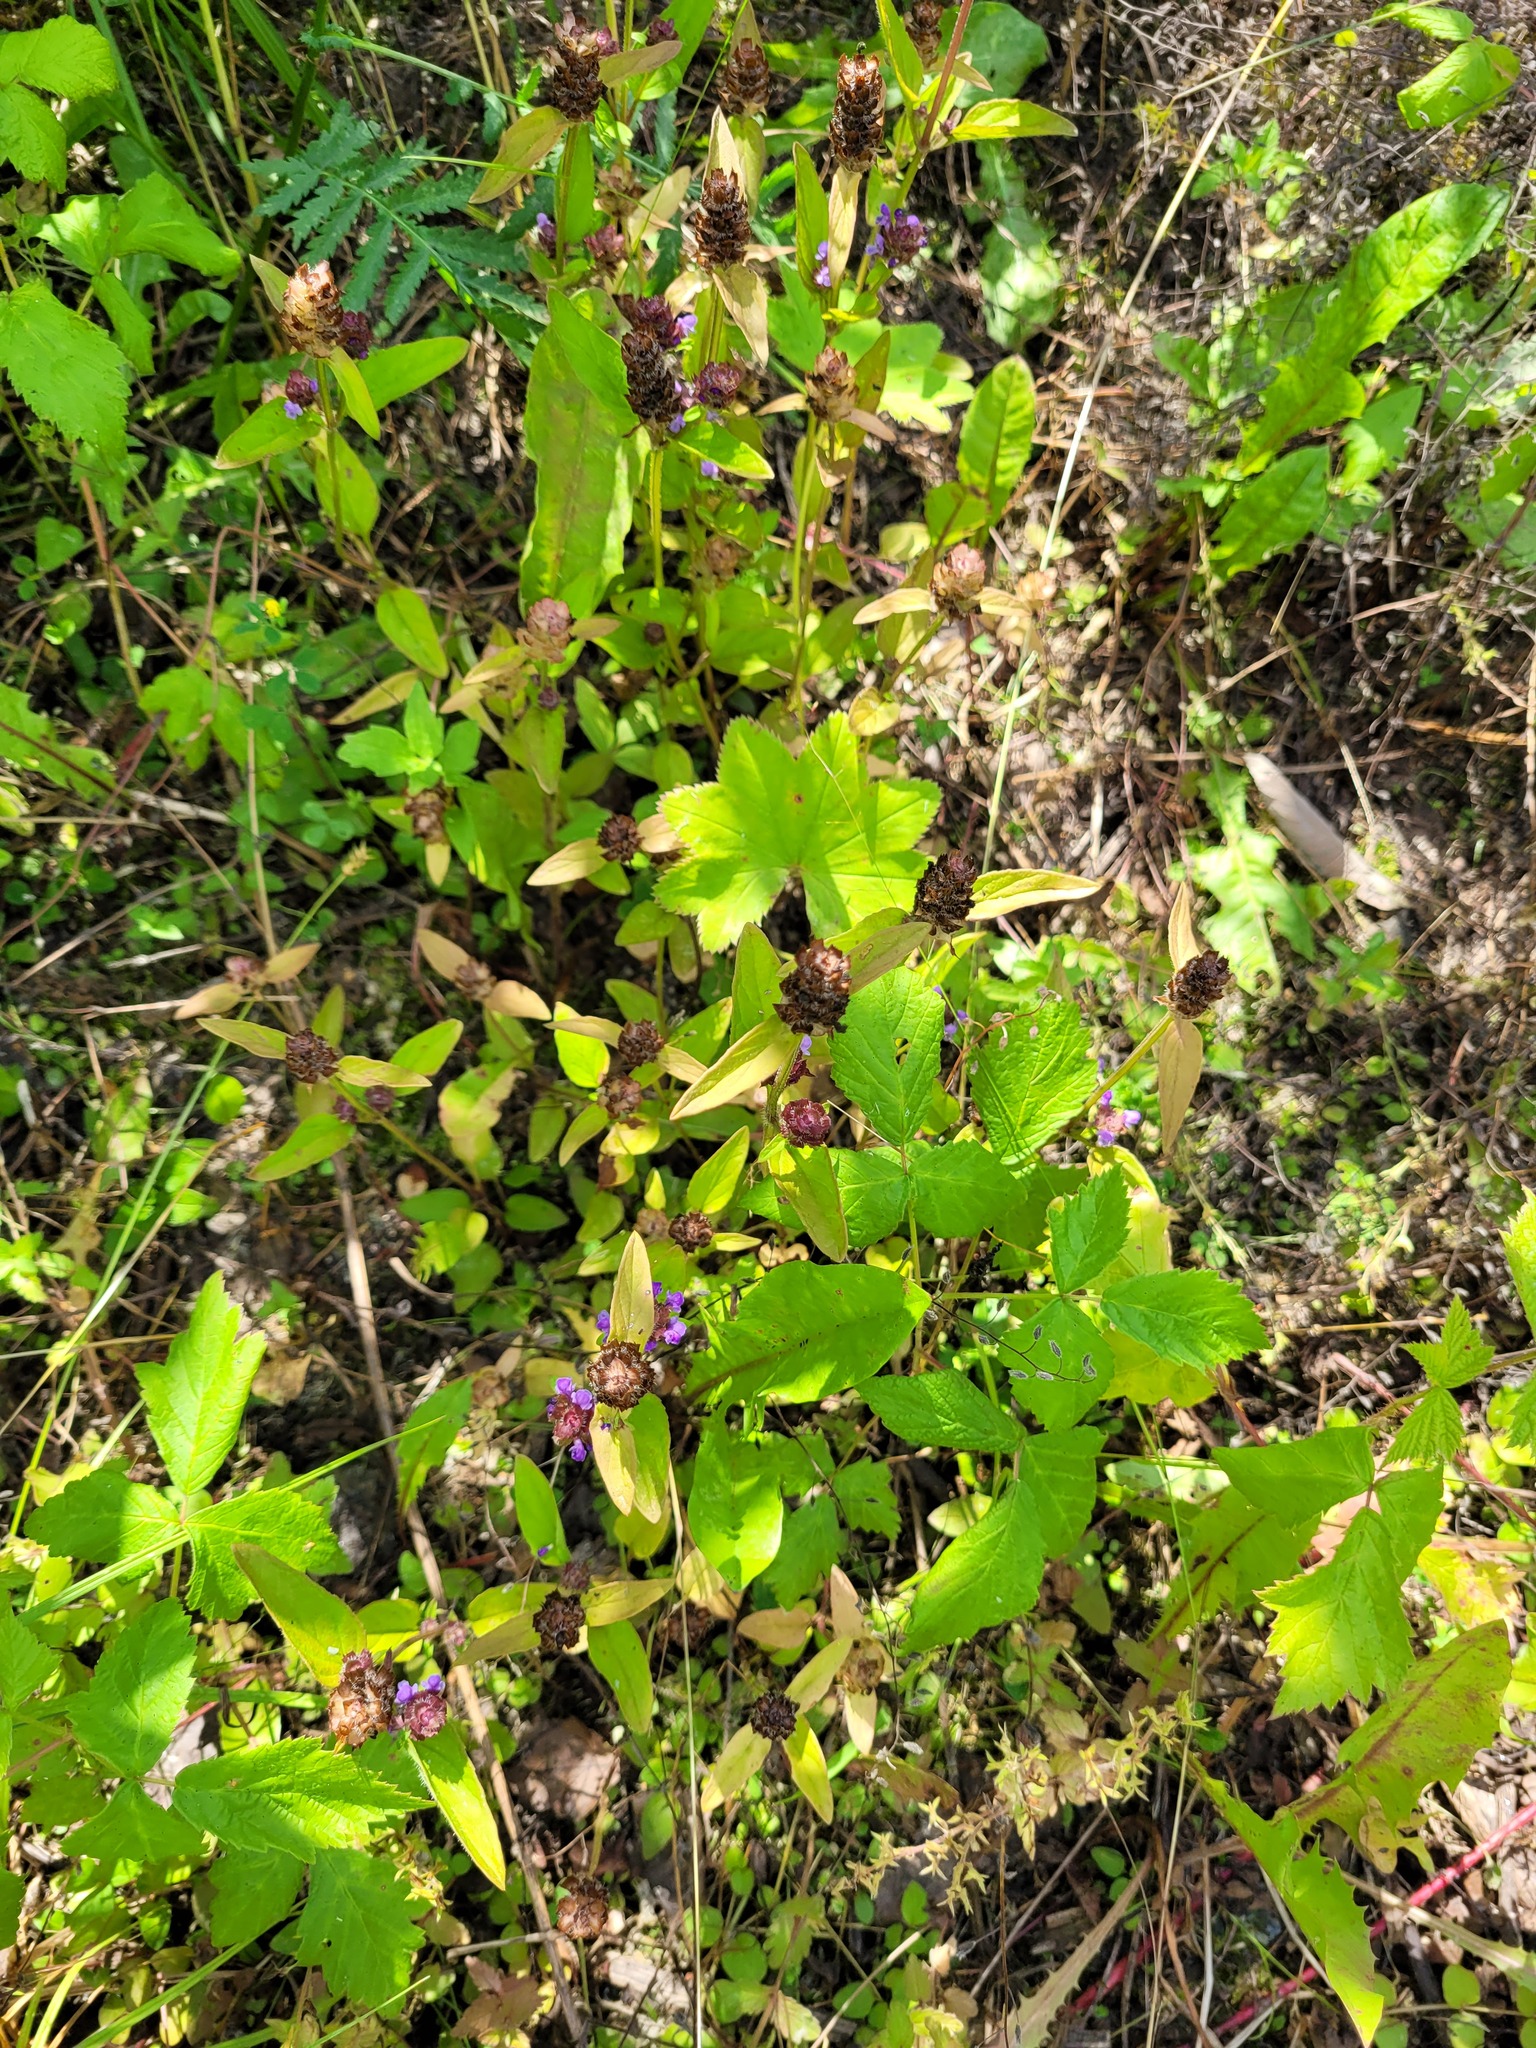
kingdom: Plantae
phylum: Tracheophyta
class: Magnoliopsida
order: Lamiales
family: Lamiaceae
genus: Prunella
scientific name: Prunella vulgaris
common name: Heal-all
